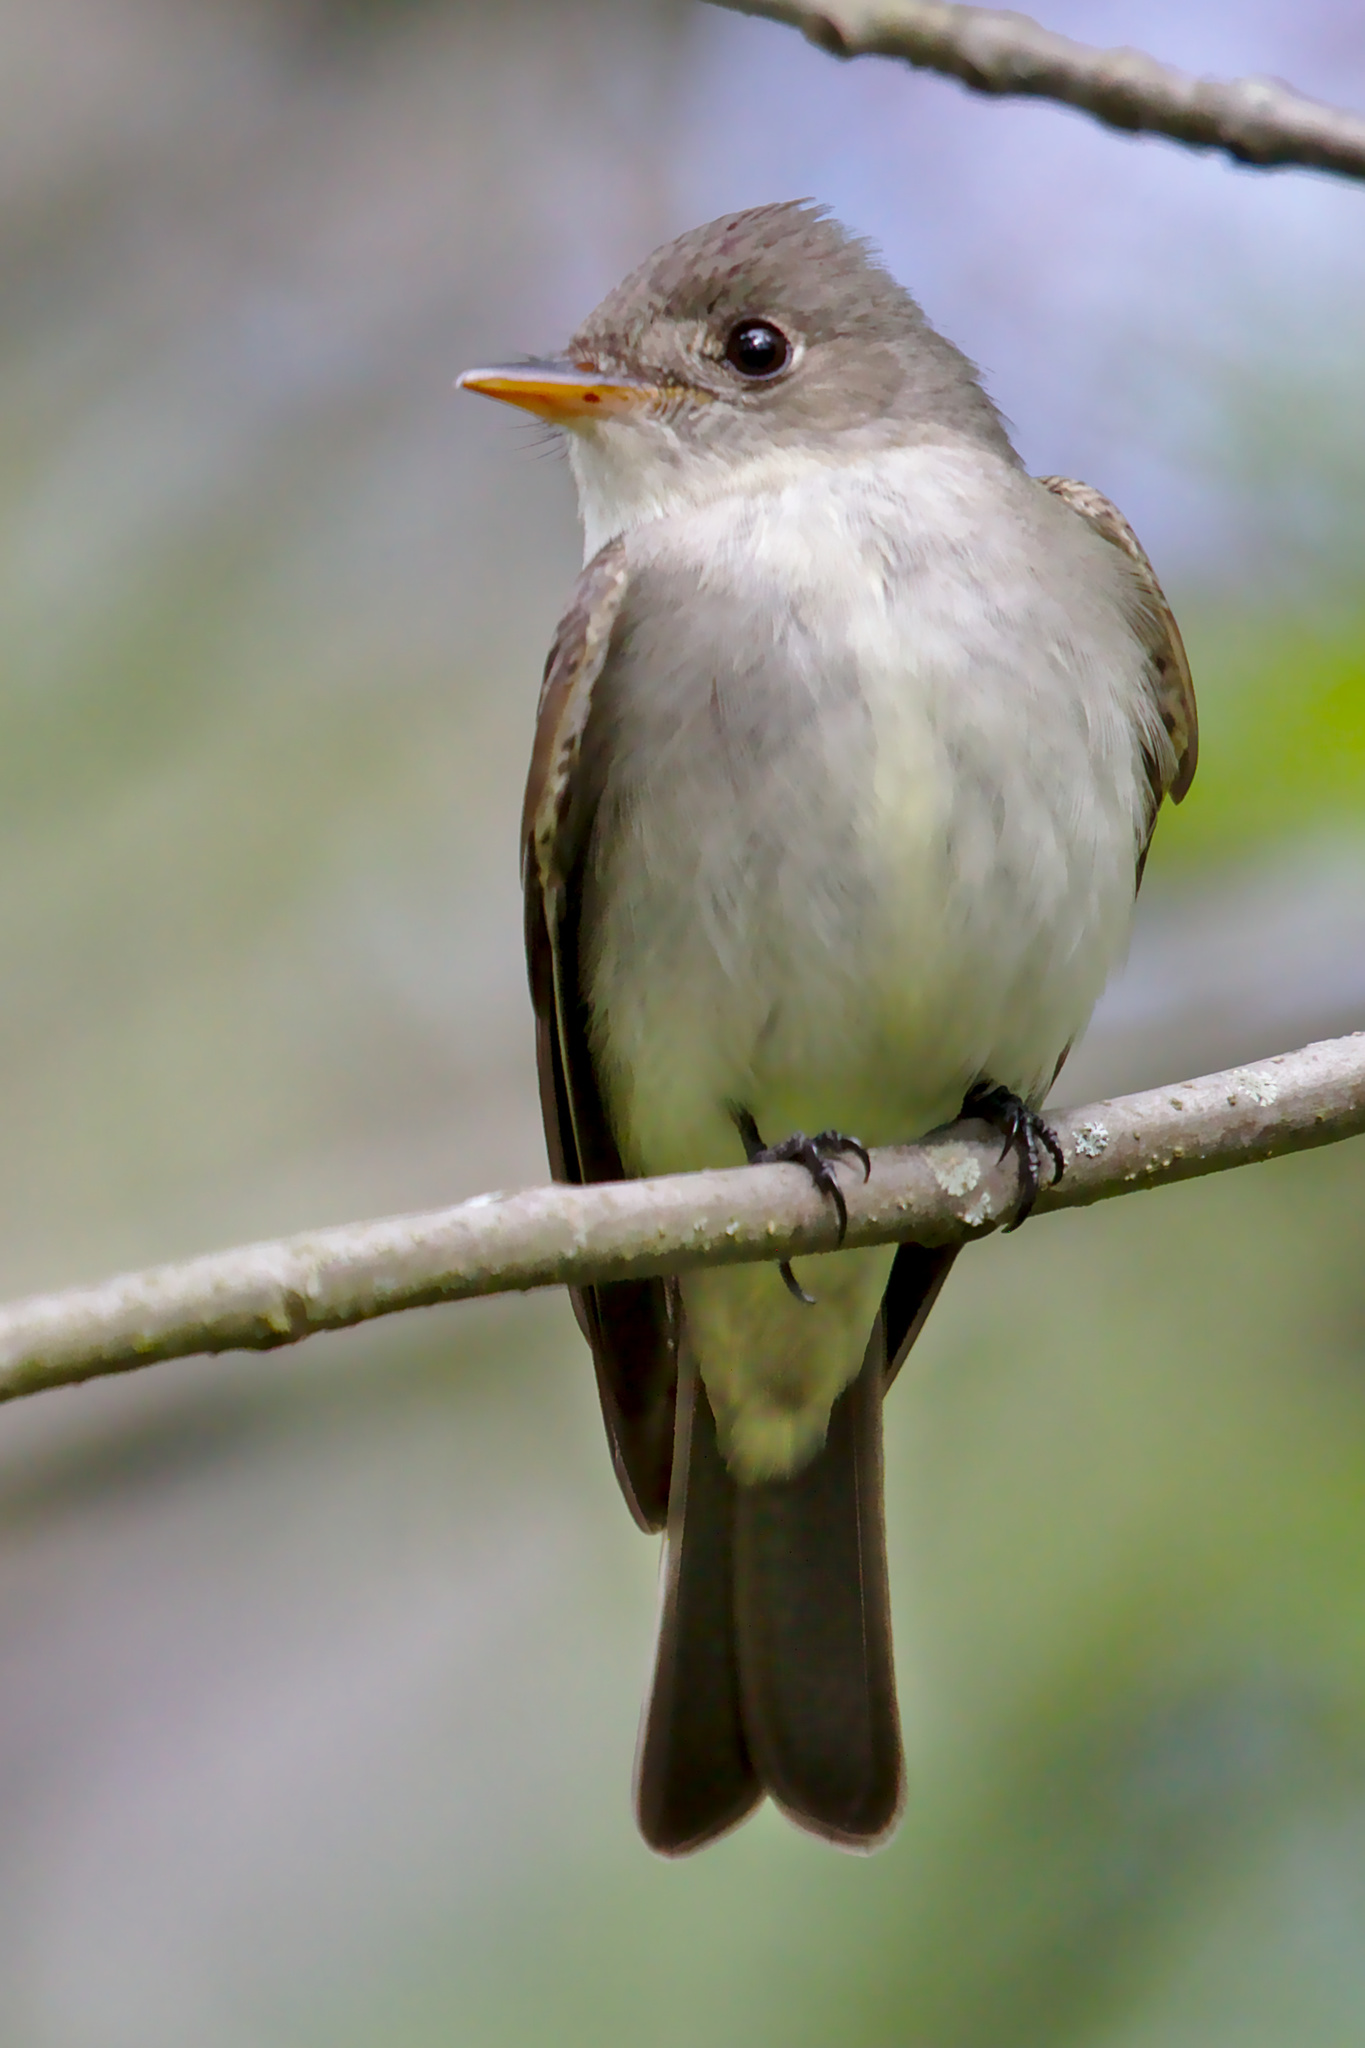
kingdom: Animalia
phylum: Chordata
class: Aves
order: Passeriformes
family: Tyrannidae
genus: Contopus
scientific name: Contopus virens
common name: Eastern wood-pewee
